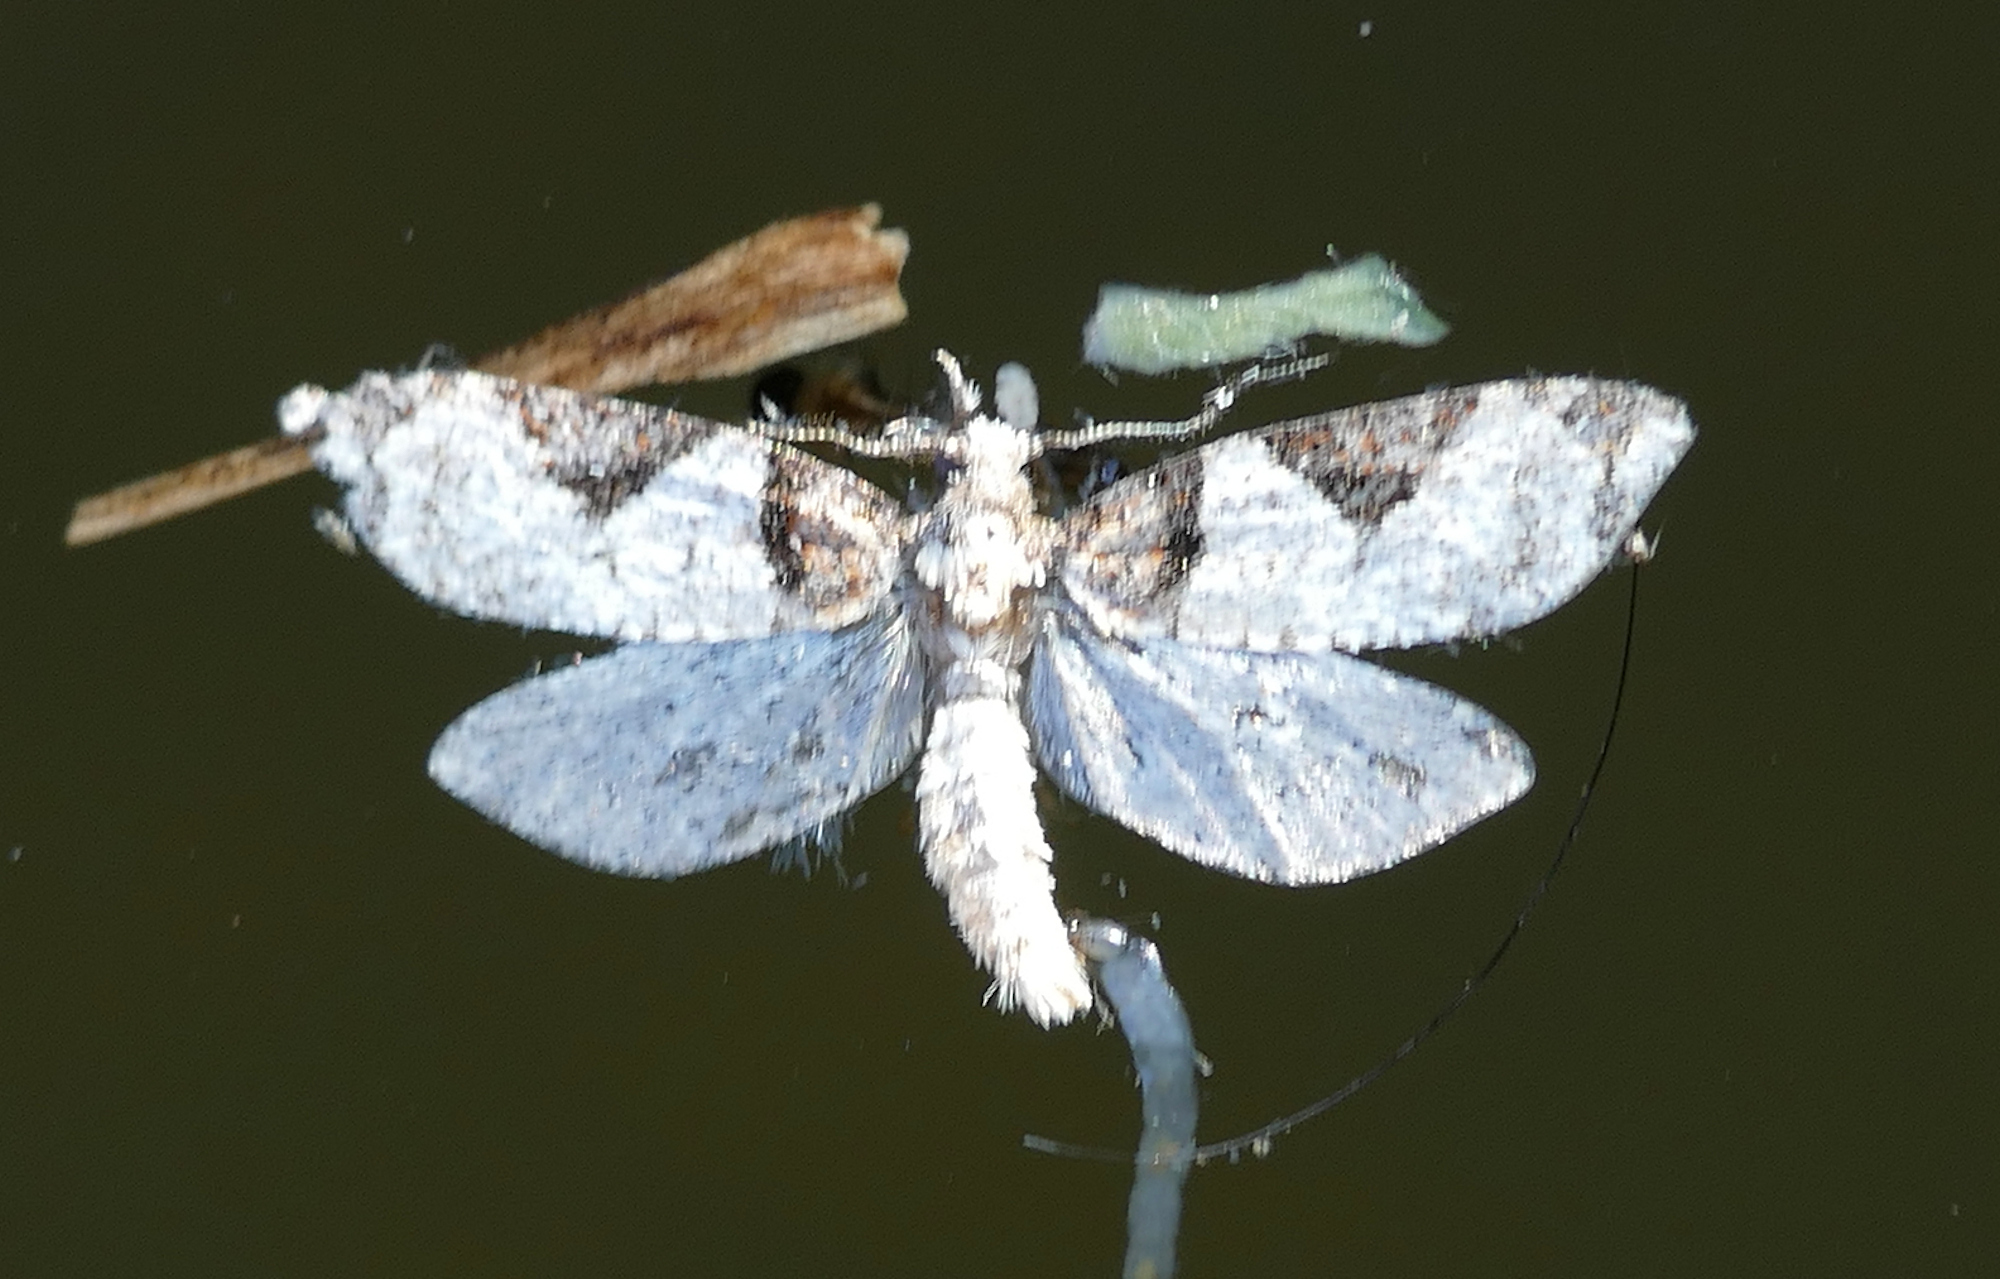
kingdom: Animalia
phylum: Arthropoda
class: Insecta
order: Lepidoptera
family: Tortricidae
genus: Anopina
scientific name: Anopina eleonora
